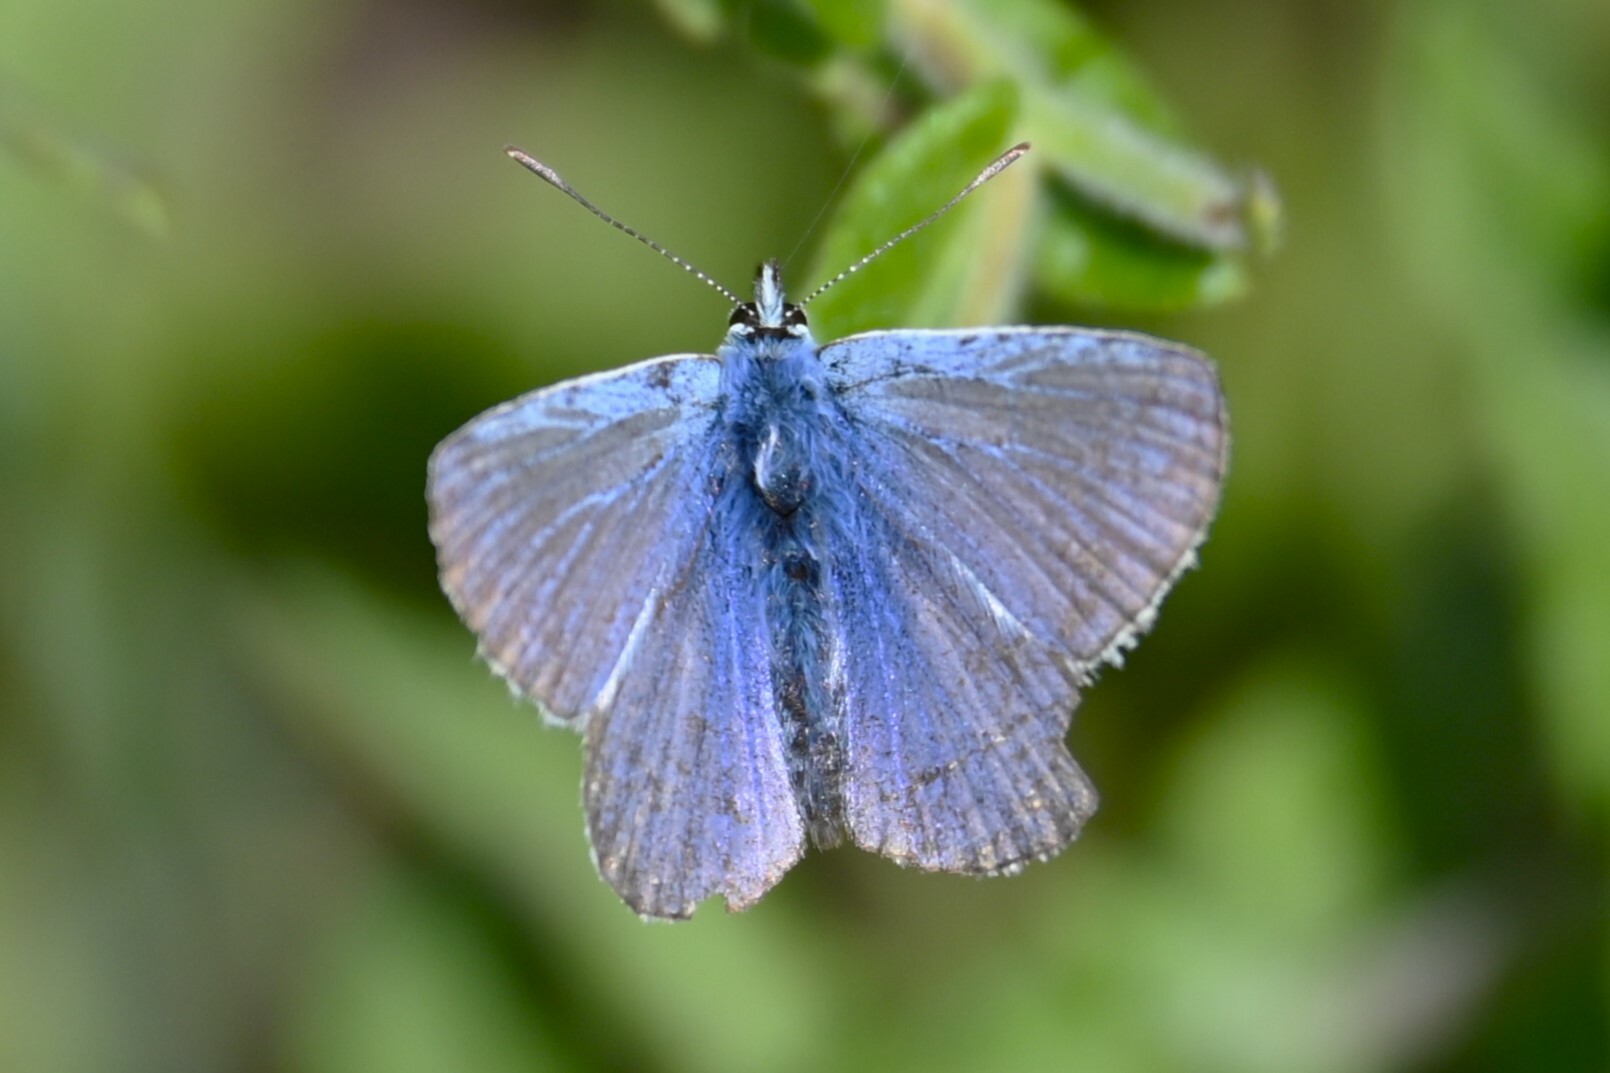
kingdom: Animalia
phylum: Arthropoda
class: Insecta
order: Lepidoptera
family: Lycaenidae
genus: Polyommatus
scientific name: Polyommatus icarus
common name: Common blue
